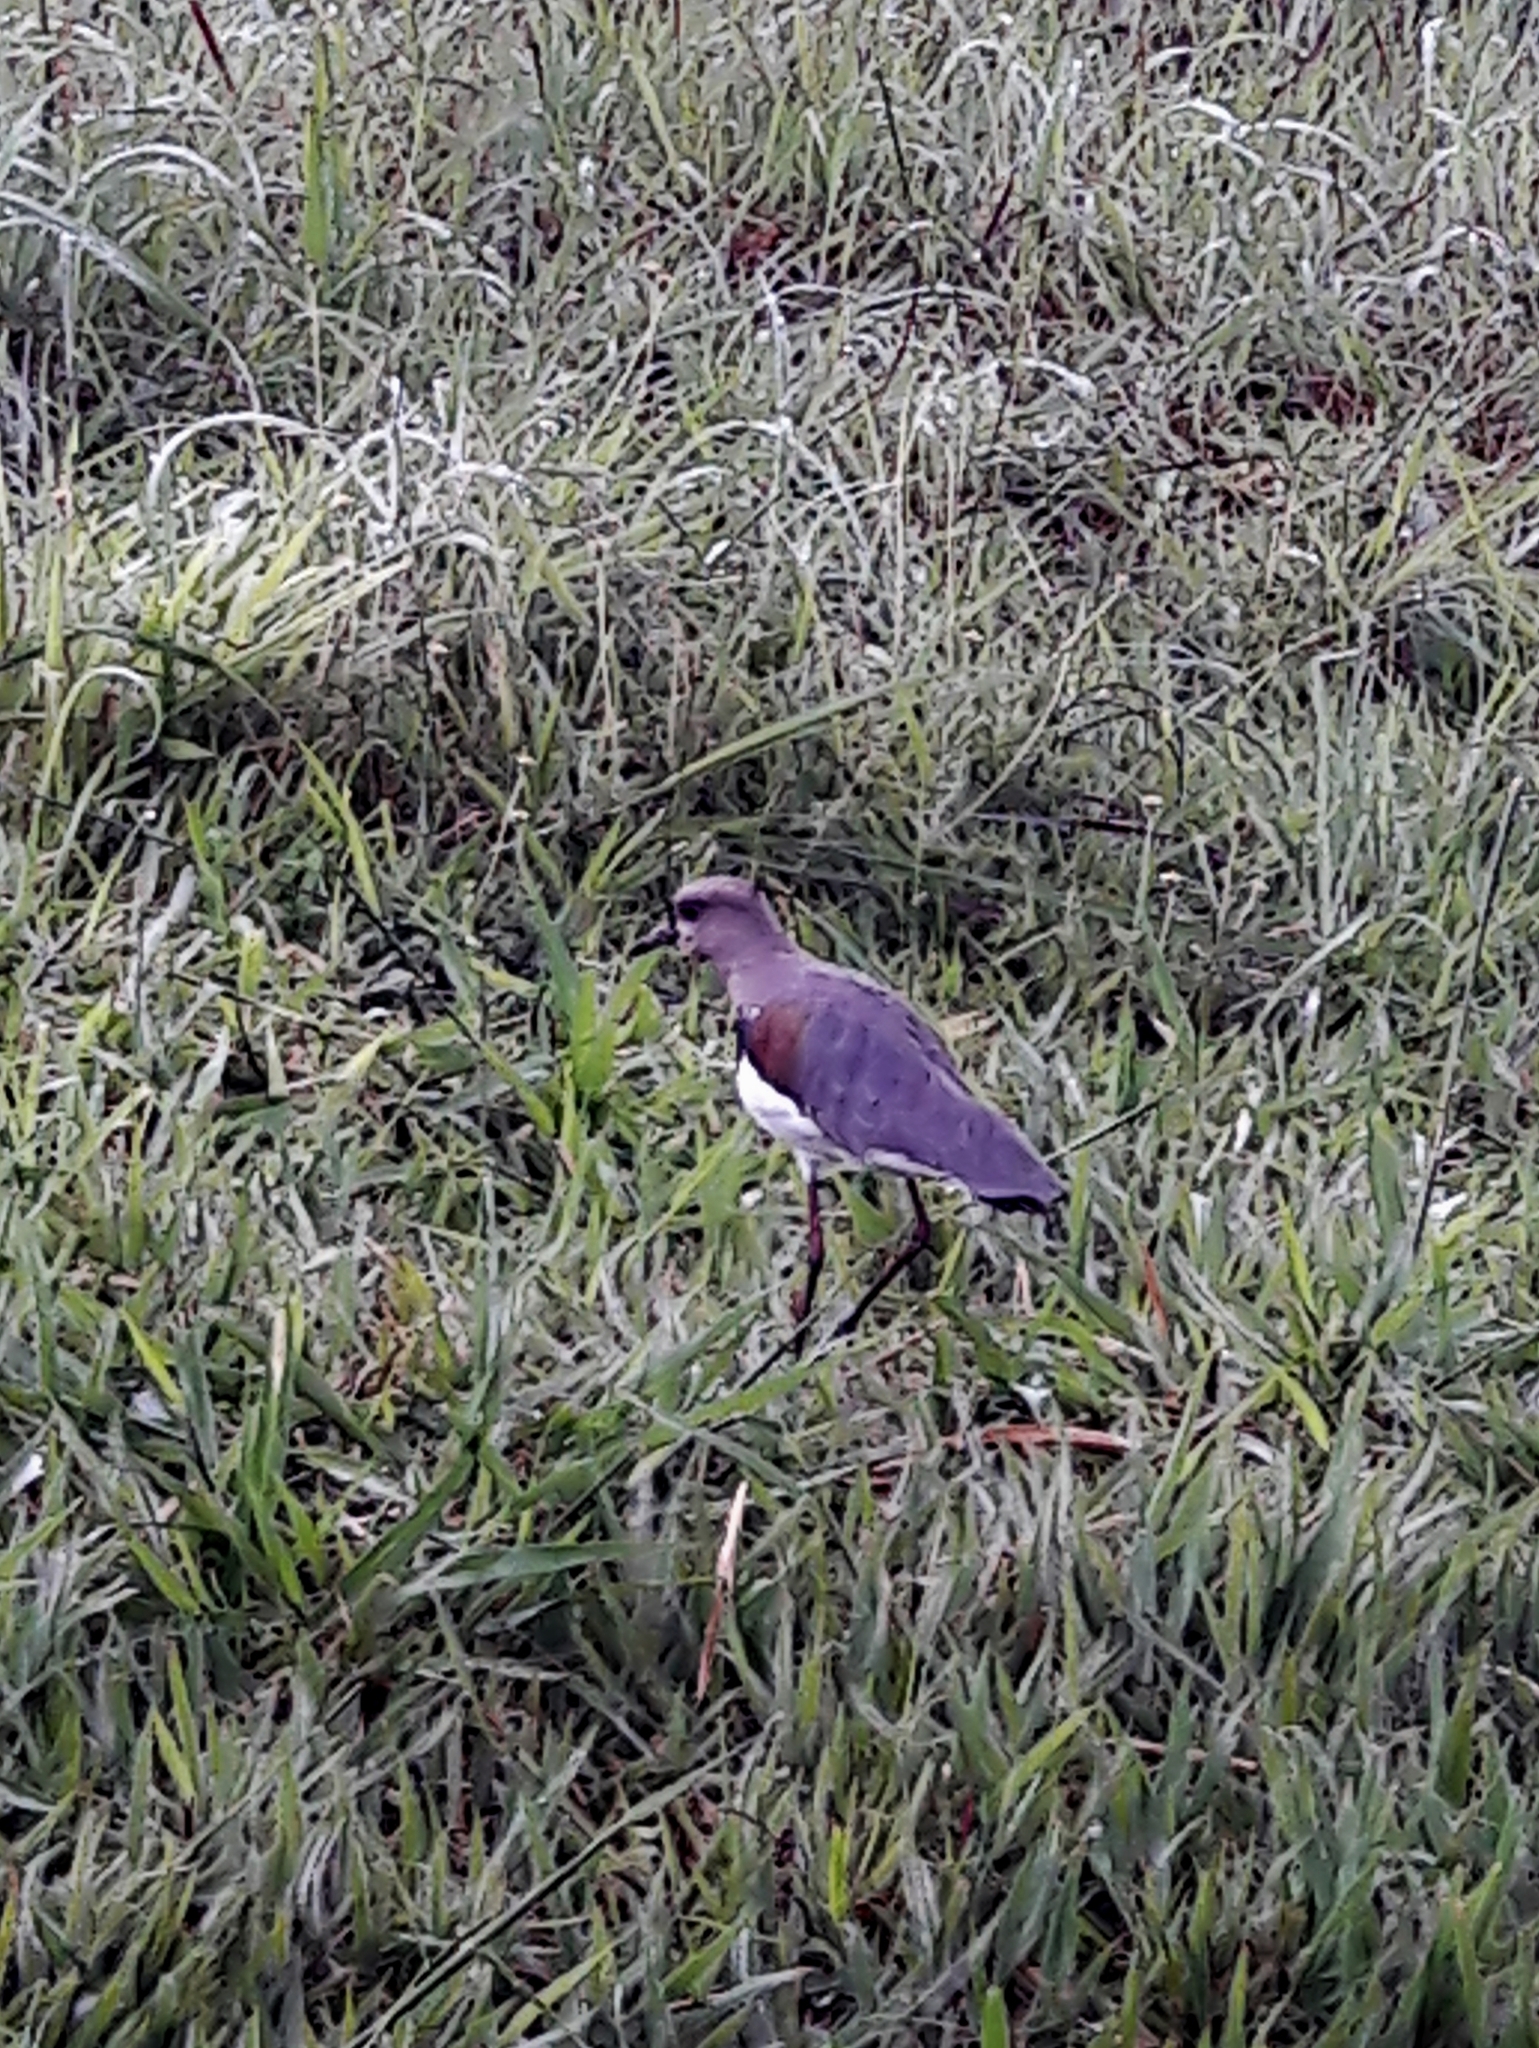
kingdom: Animalia
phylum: Chordata
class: Aves
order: Charadriiformes
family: Charadriidae
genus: Vanellus
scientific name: Vanellus chilensis
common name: Southern lapwing
